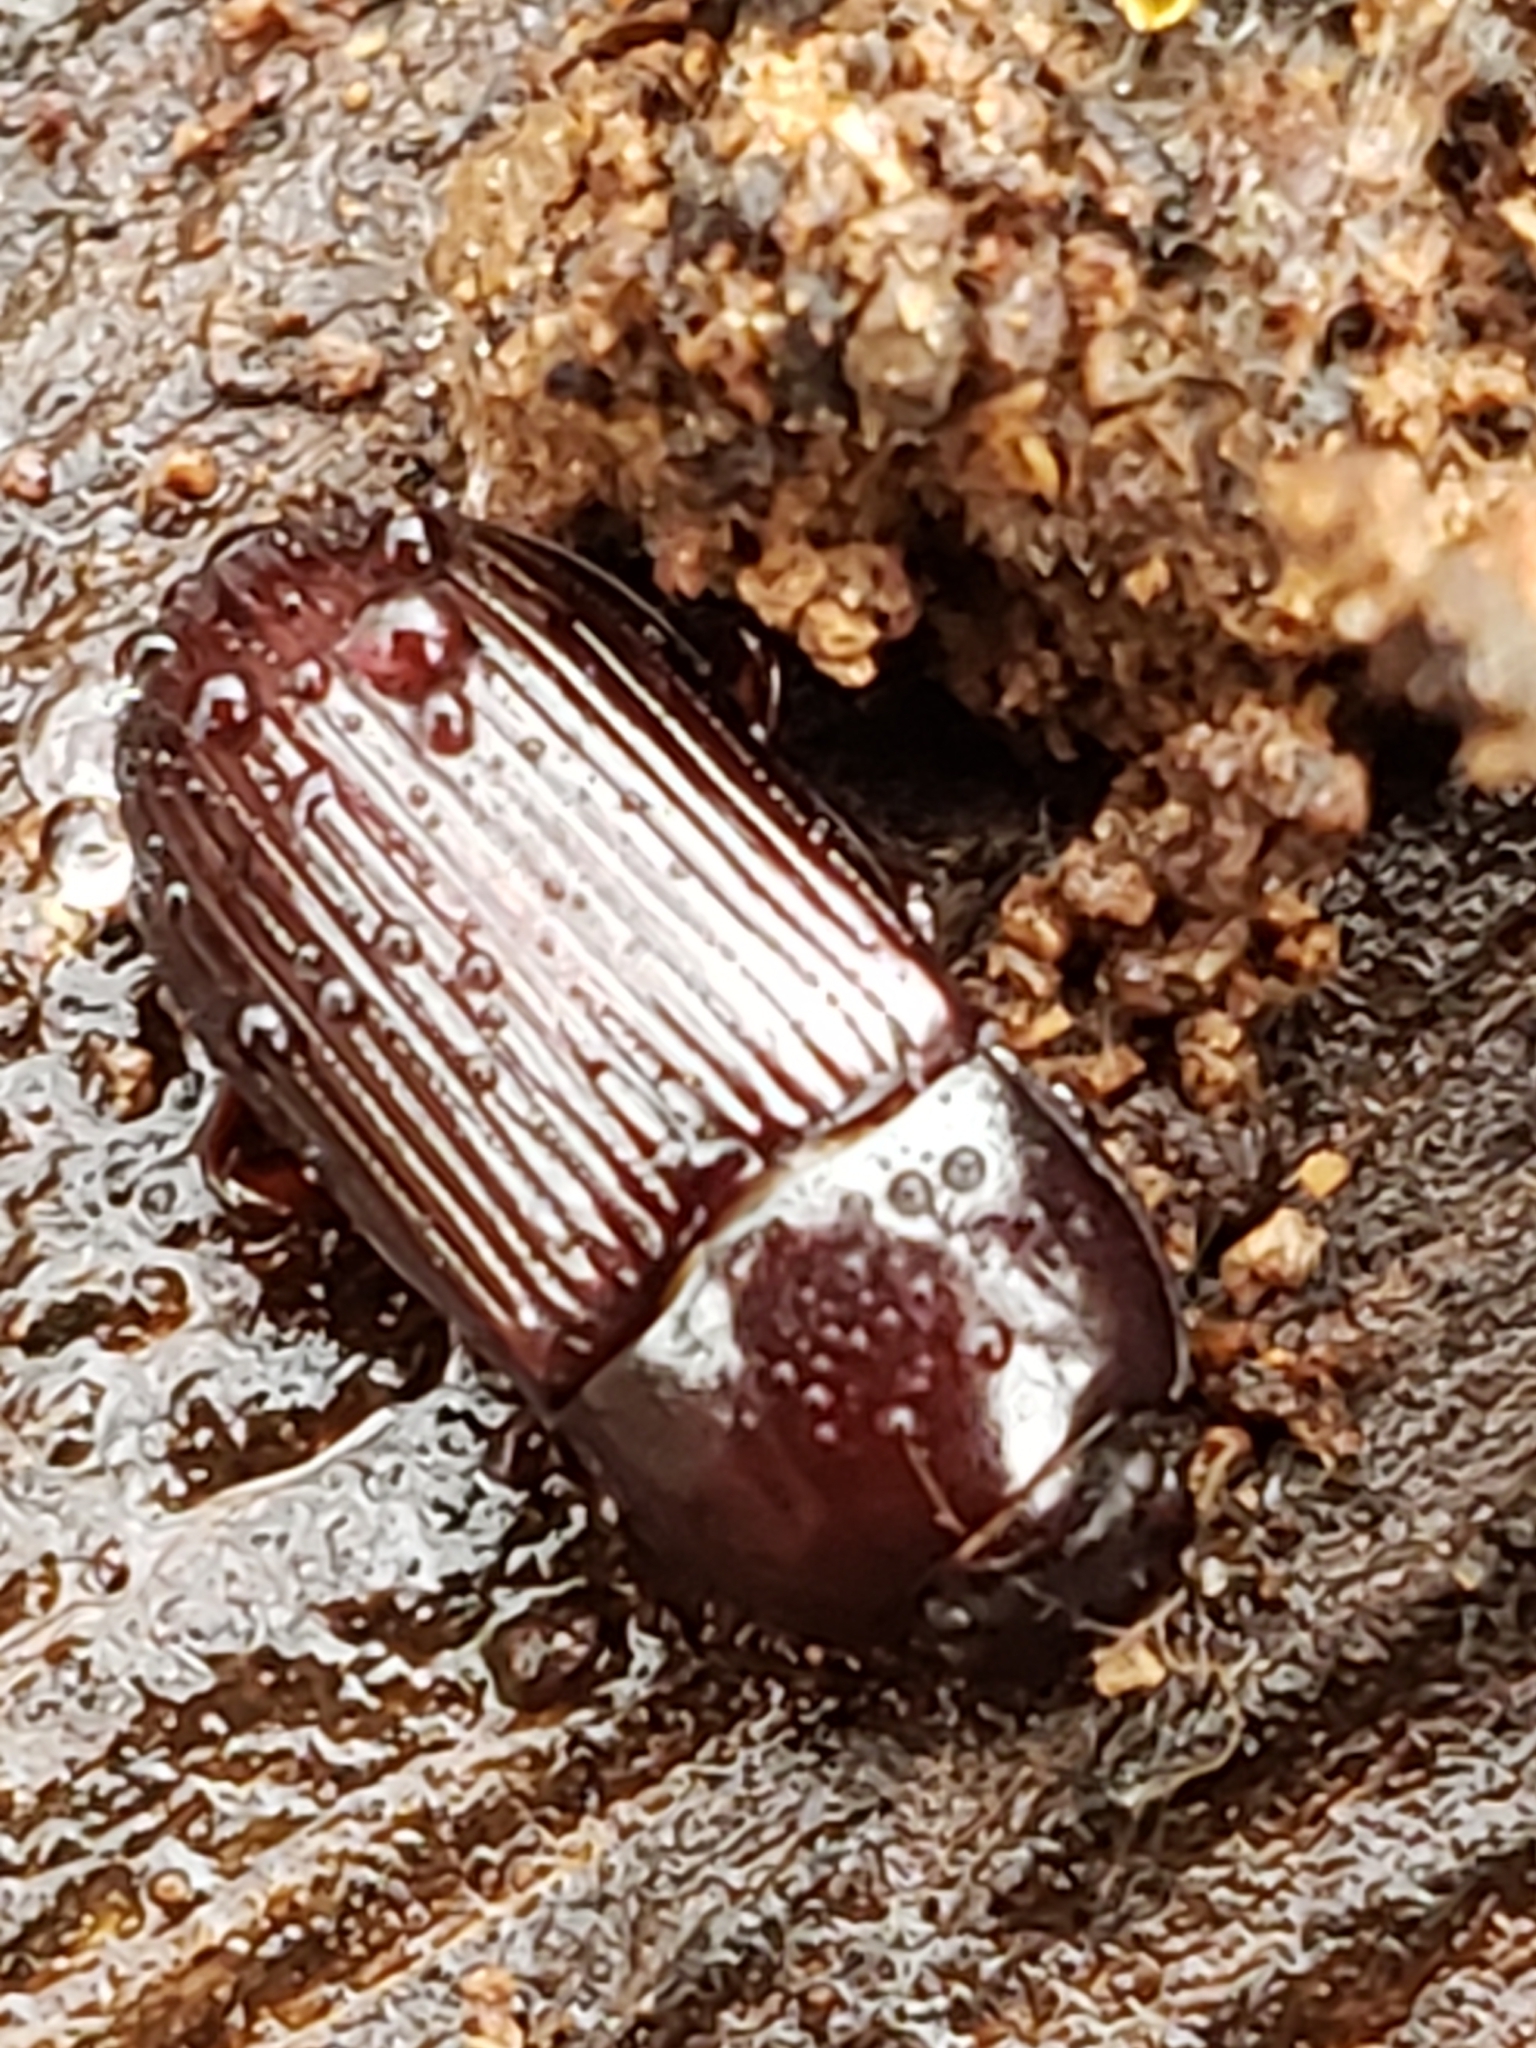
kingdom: Animalia
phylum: Arthropoda
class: Insecta
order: Coleoptera
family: Tenebrionidae
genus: Uloma
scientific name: Uloma imberbis
